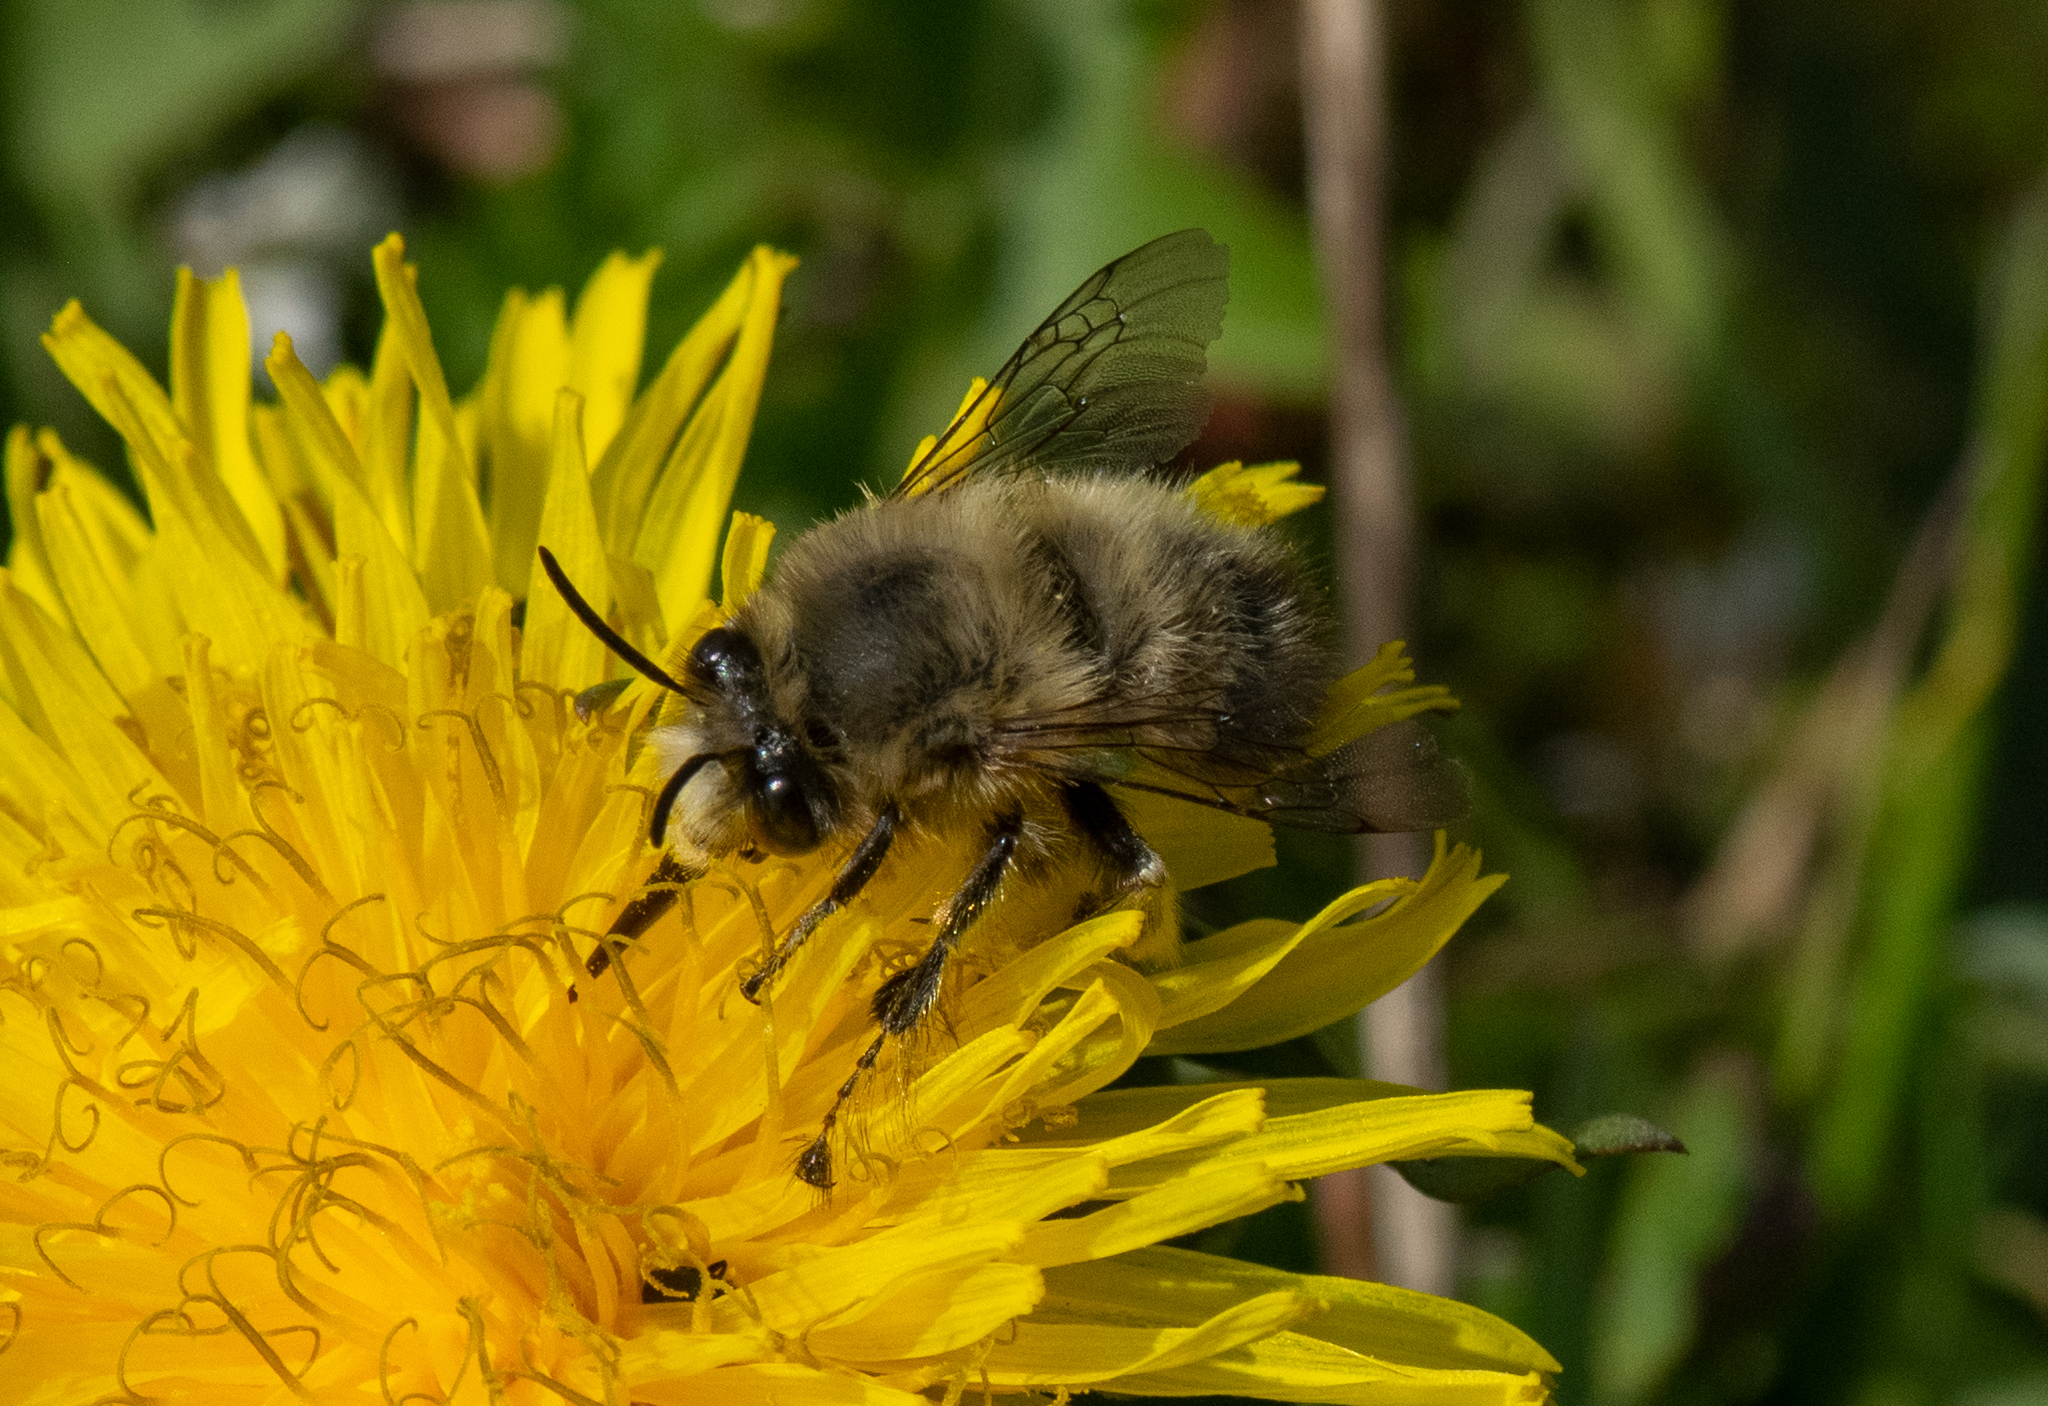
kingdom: Animalia
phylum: Arthropoda
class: Insecta
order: Hymenoptera
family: Apidae
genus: Anthophora
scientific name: Anthophora plumipes
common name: Hairy-footed flower bee
